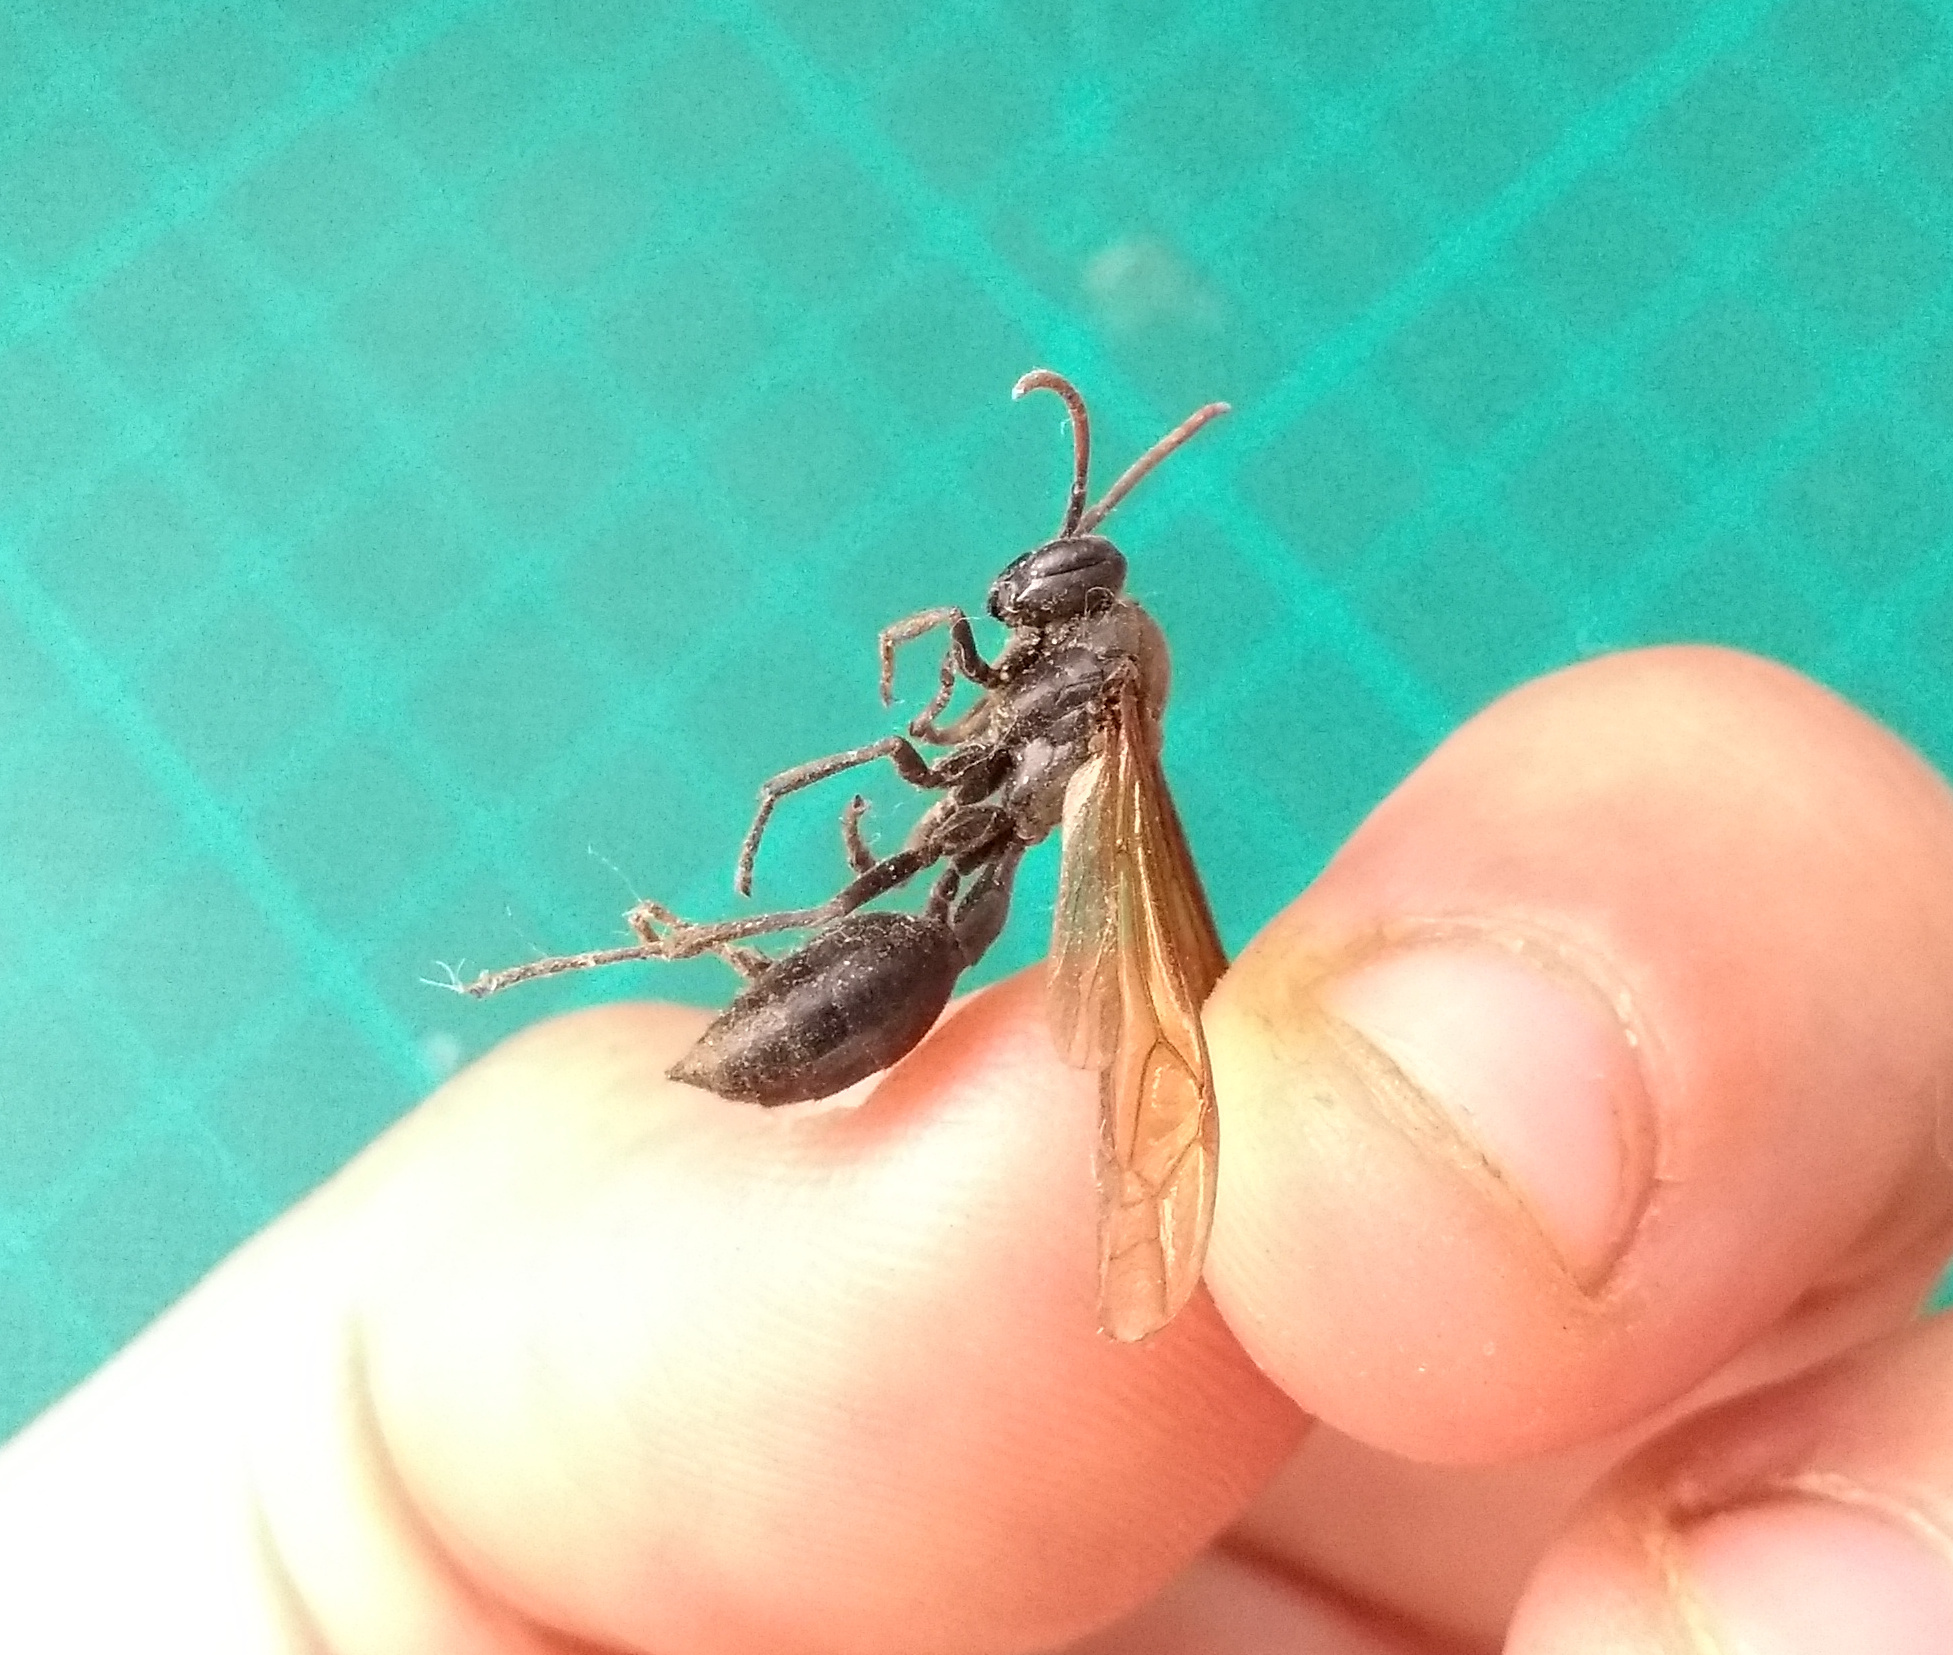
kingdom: Animalia
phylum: Arthropoda
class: Insecta
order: Hymenoptera
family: Vespidae
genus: Agelaia
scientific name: Agelaia angulata
